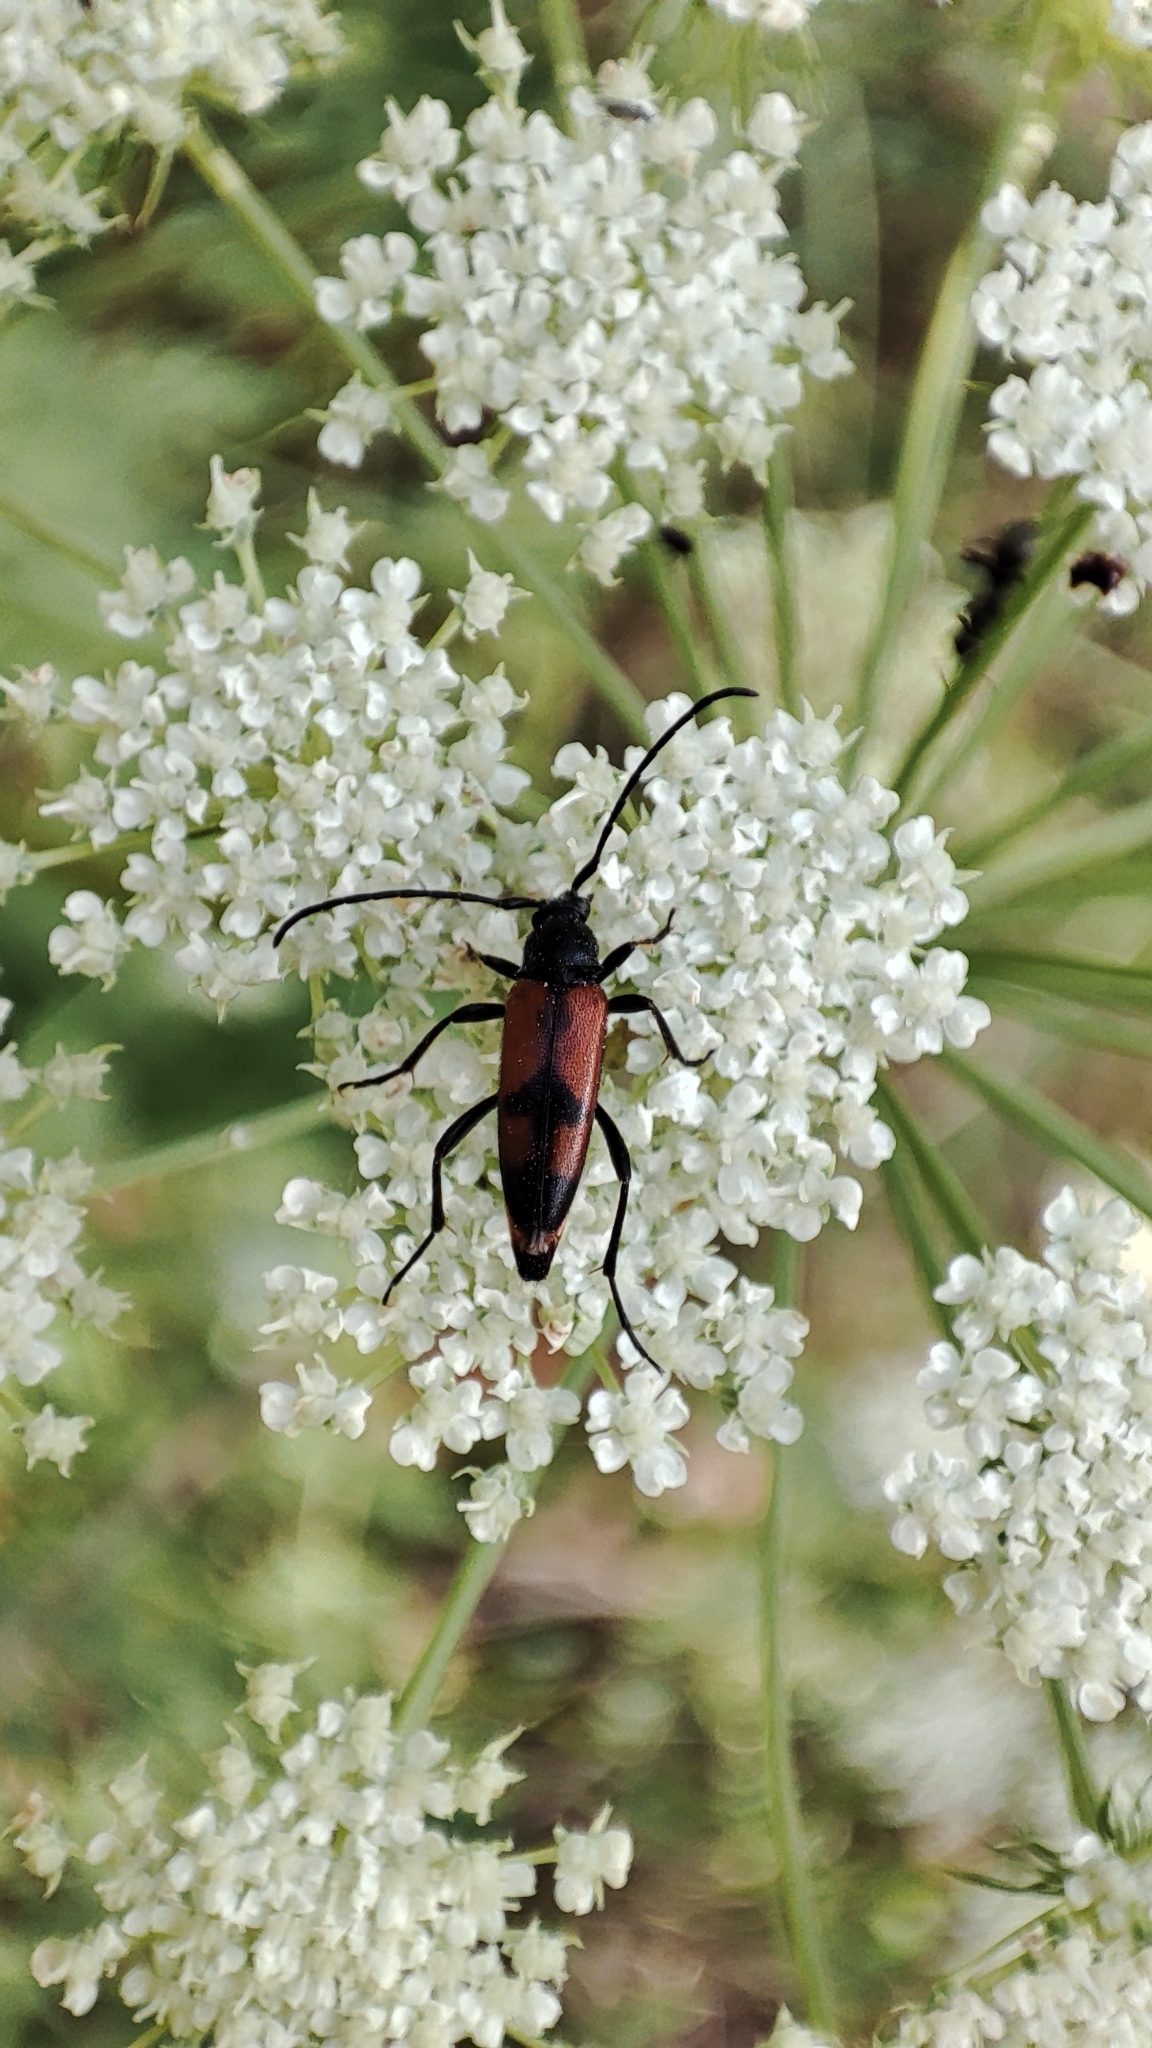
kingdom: Animalia
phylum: Arthropoda
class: Insecta
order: Coleoptera
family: Cerambycidae
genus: Stenurella
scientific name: Stenurella bifasciata
